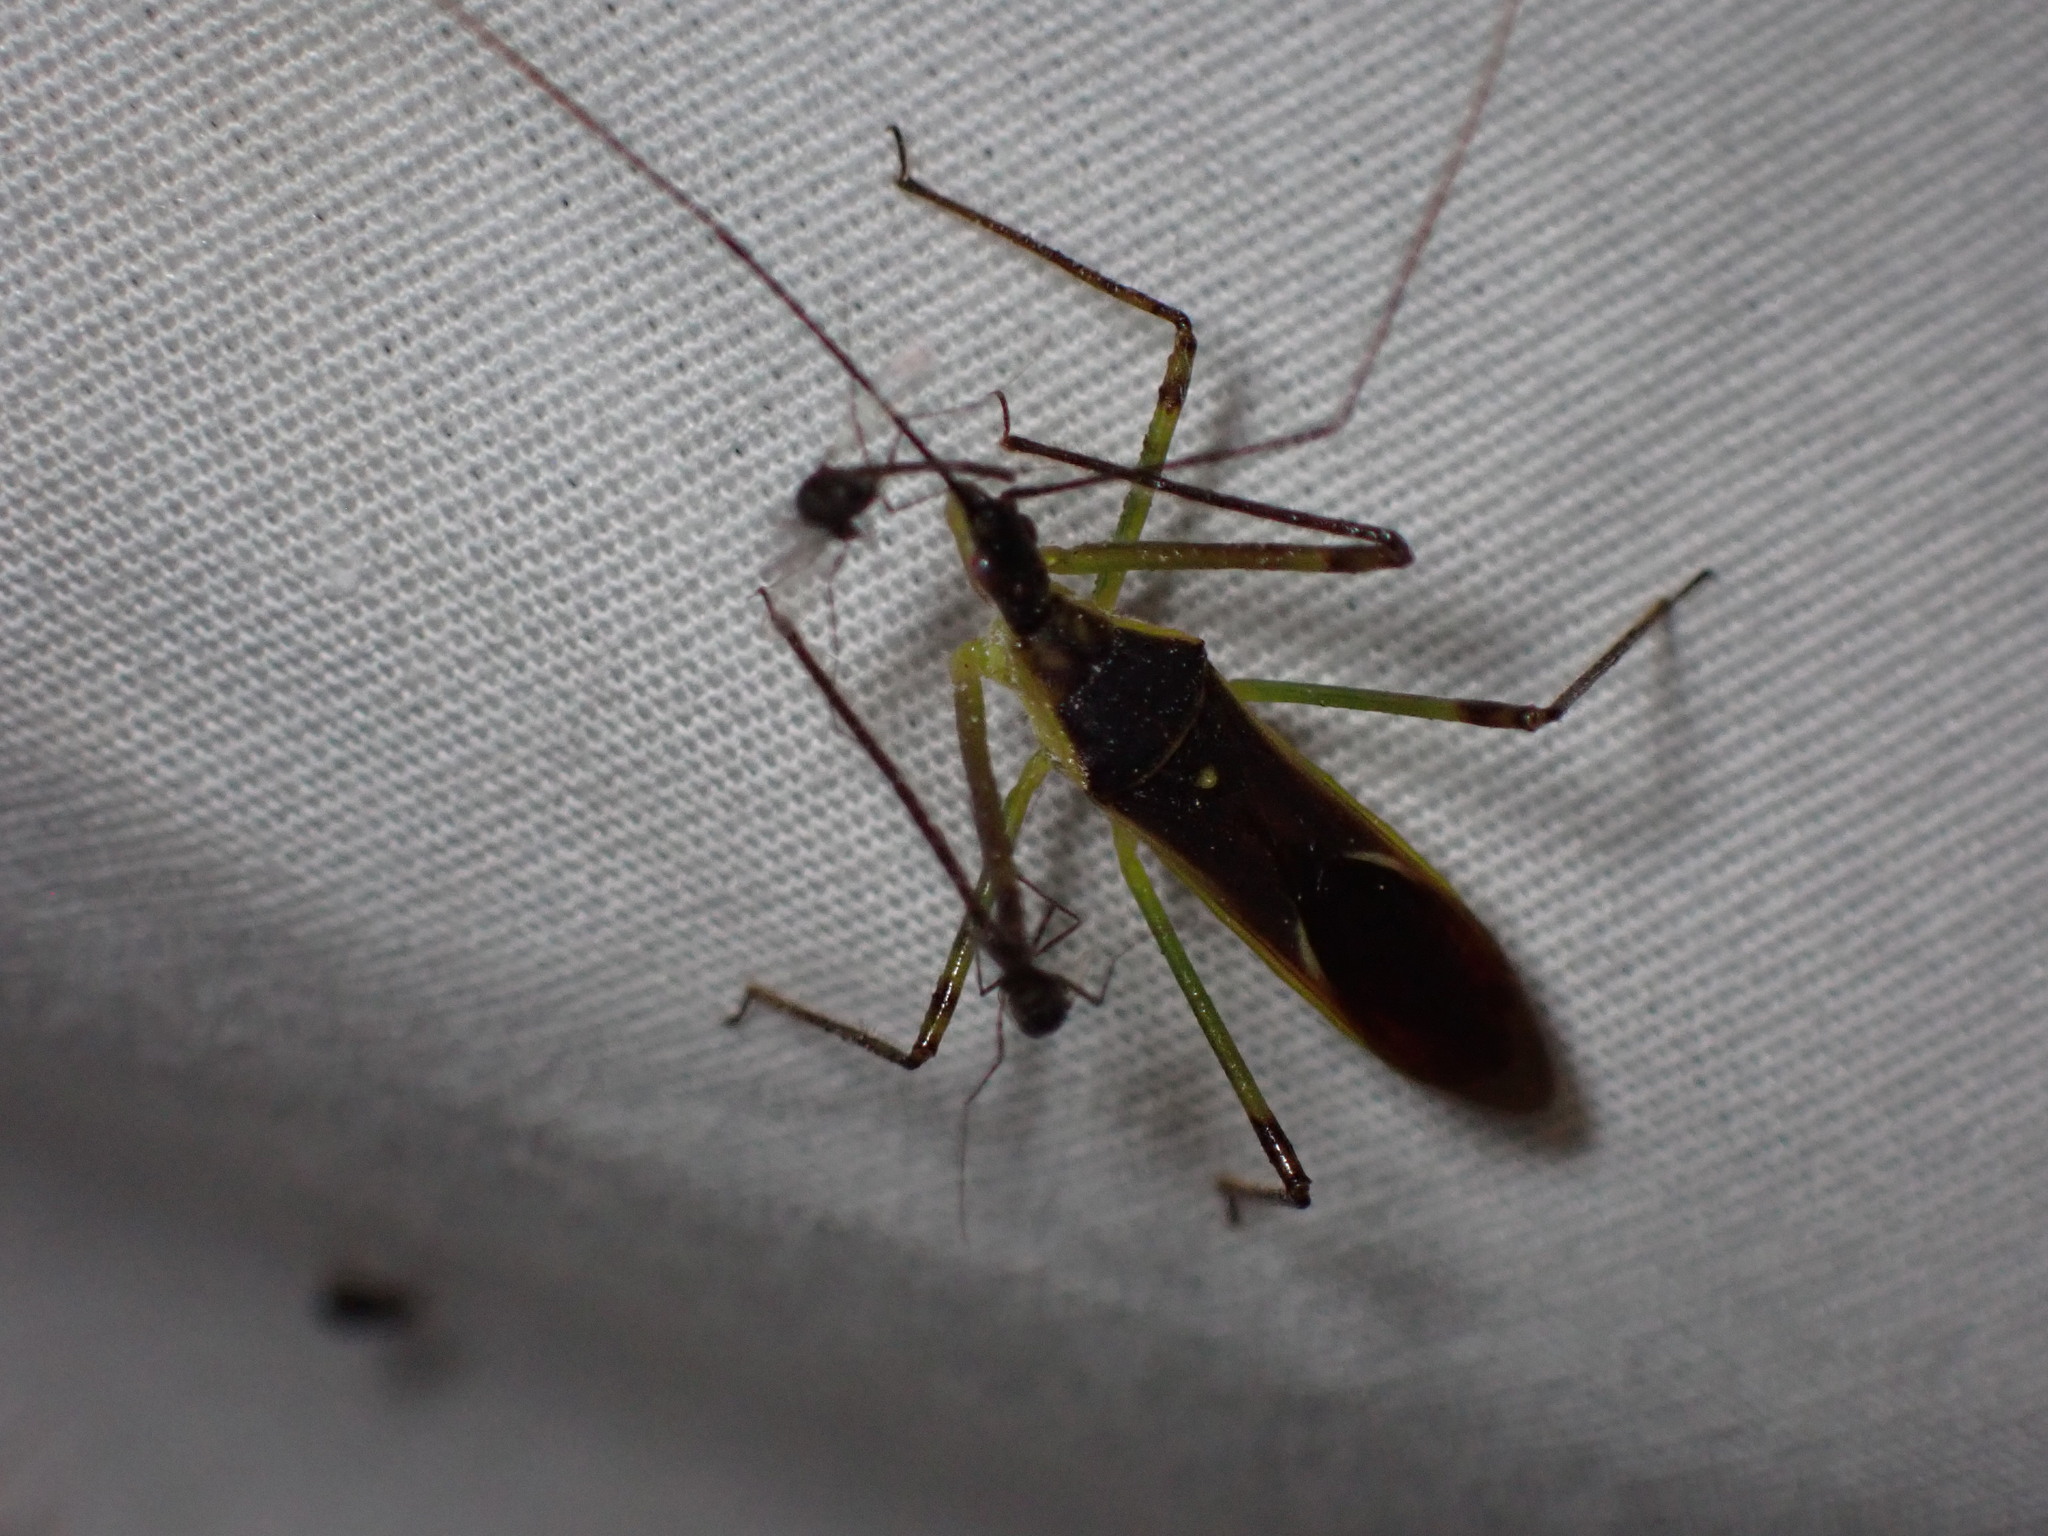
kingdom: Animalia
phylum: Arthropoda
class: Insecta
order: Hemiptera
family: Reduviidae
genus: Zelus
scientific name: Zelus luridus
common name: Pale green assassin bug
